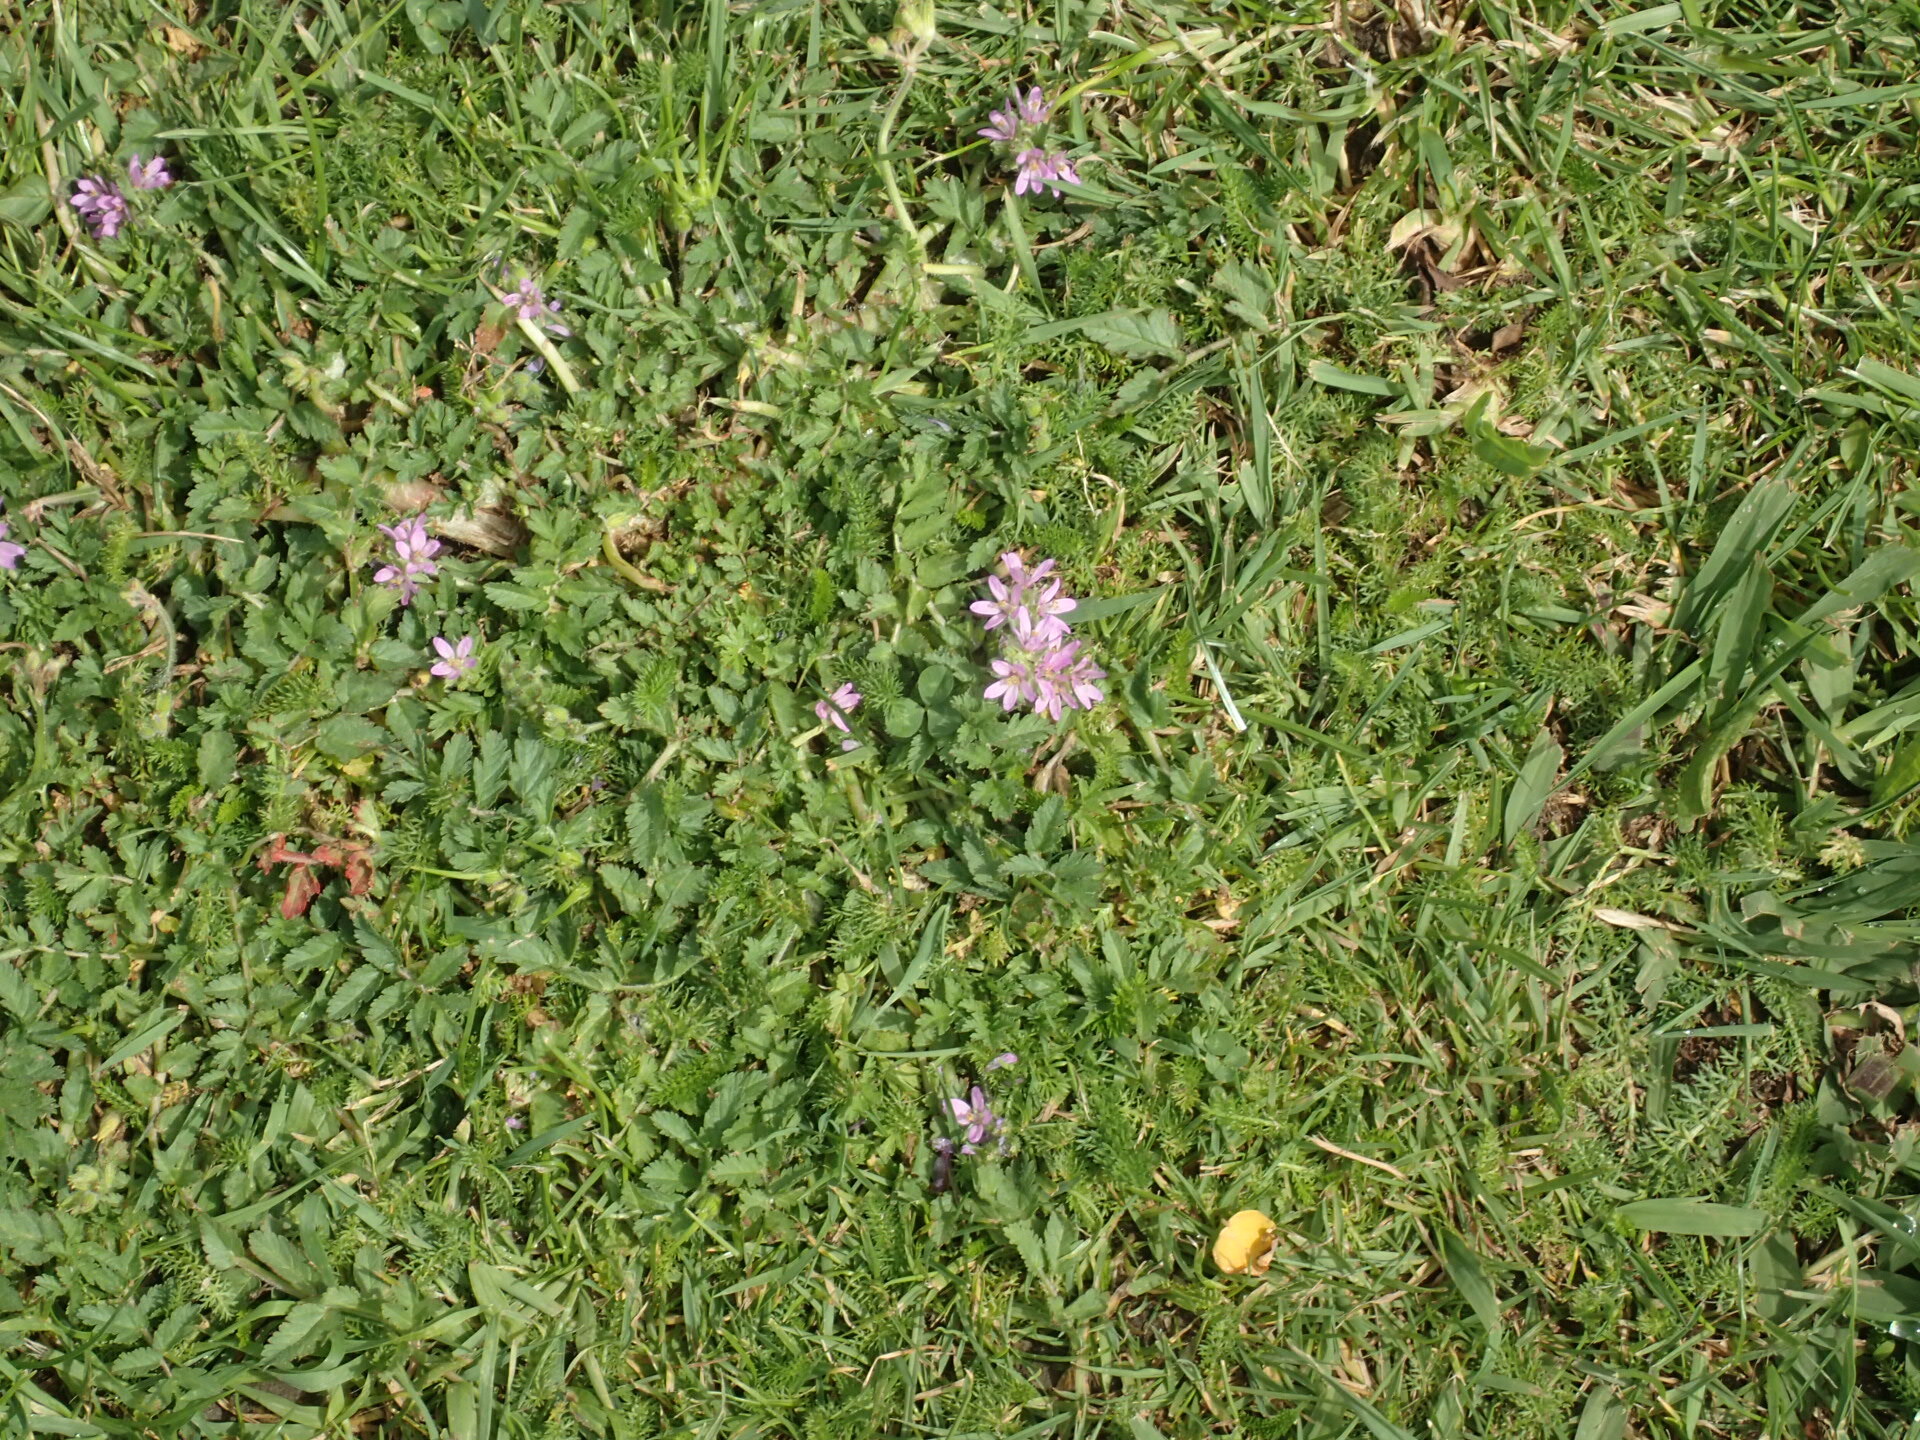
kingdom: Plantae
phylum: Tracheophyta
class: Magnoliopsida
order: Geraniales
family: Geraniaceae
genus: Erodium
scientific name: Erodium moschatum
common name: Musk stork's-bill
